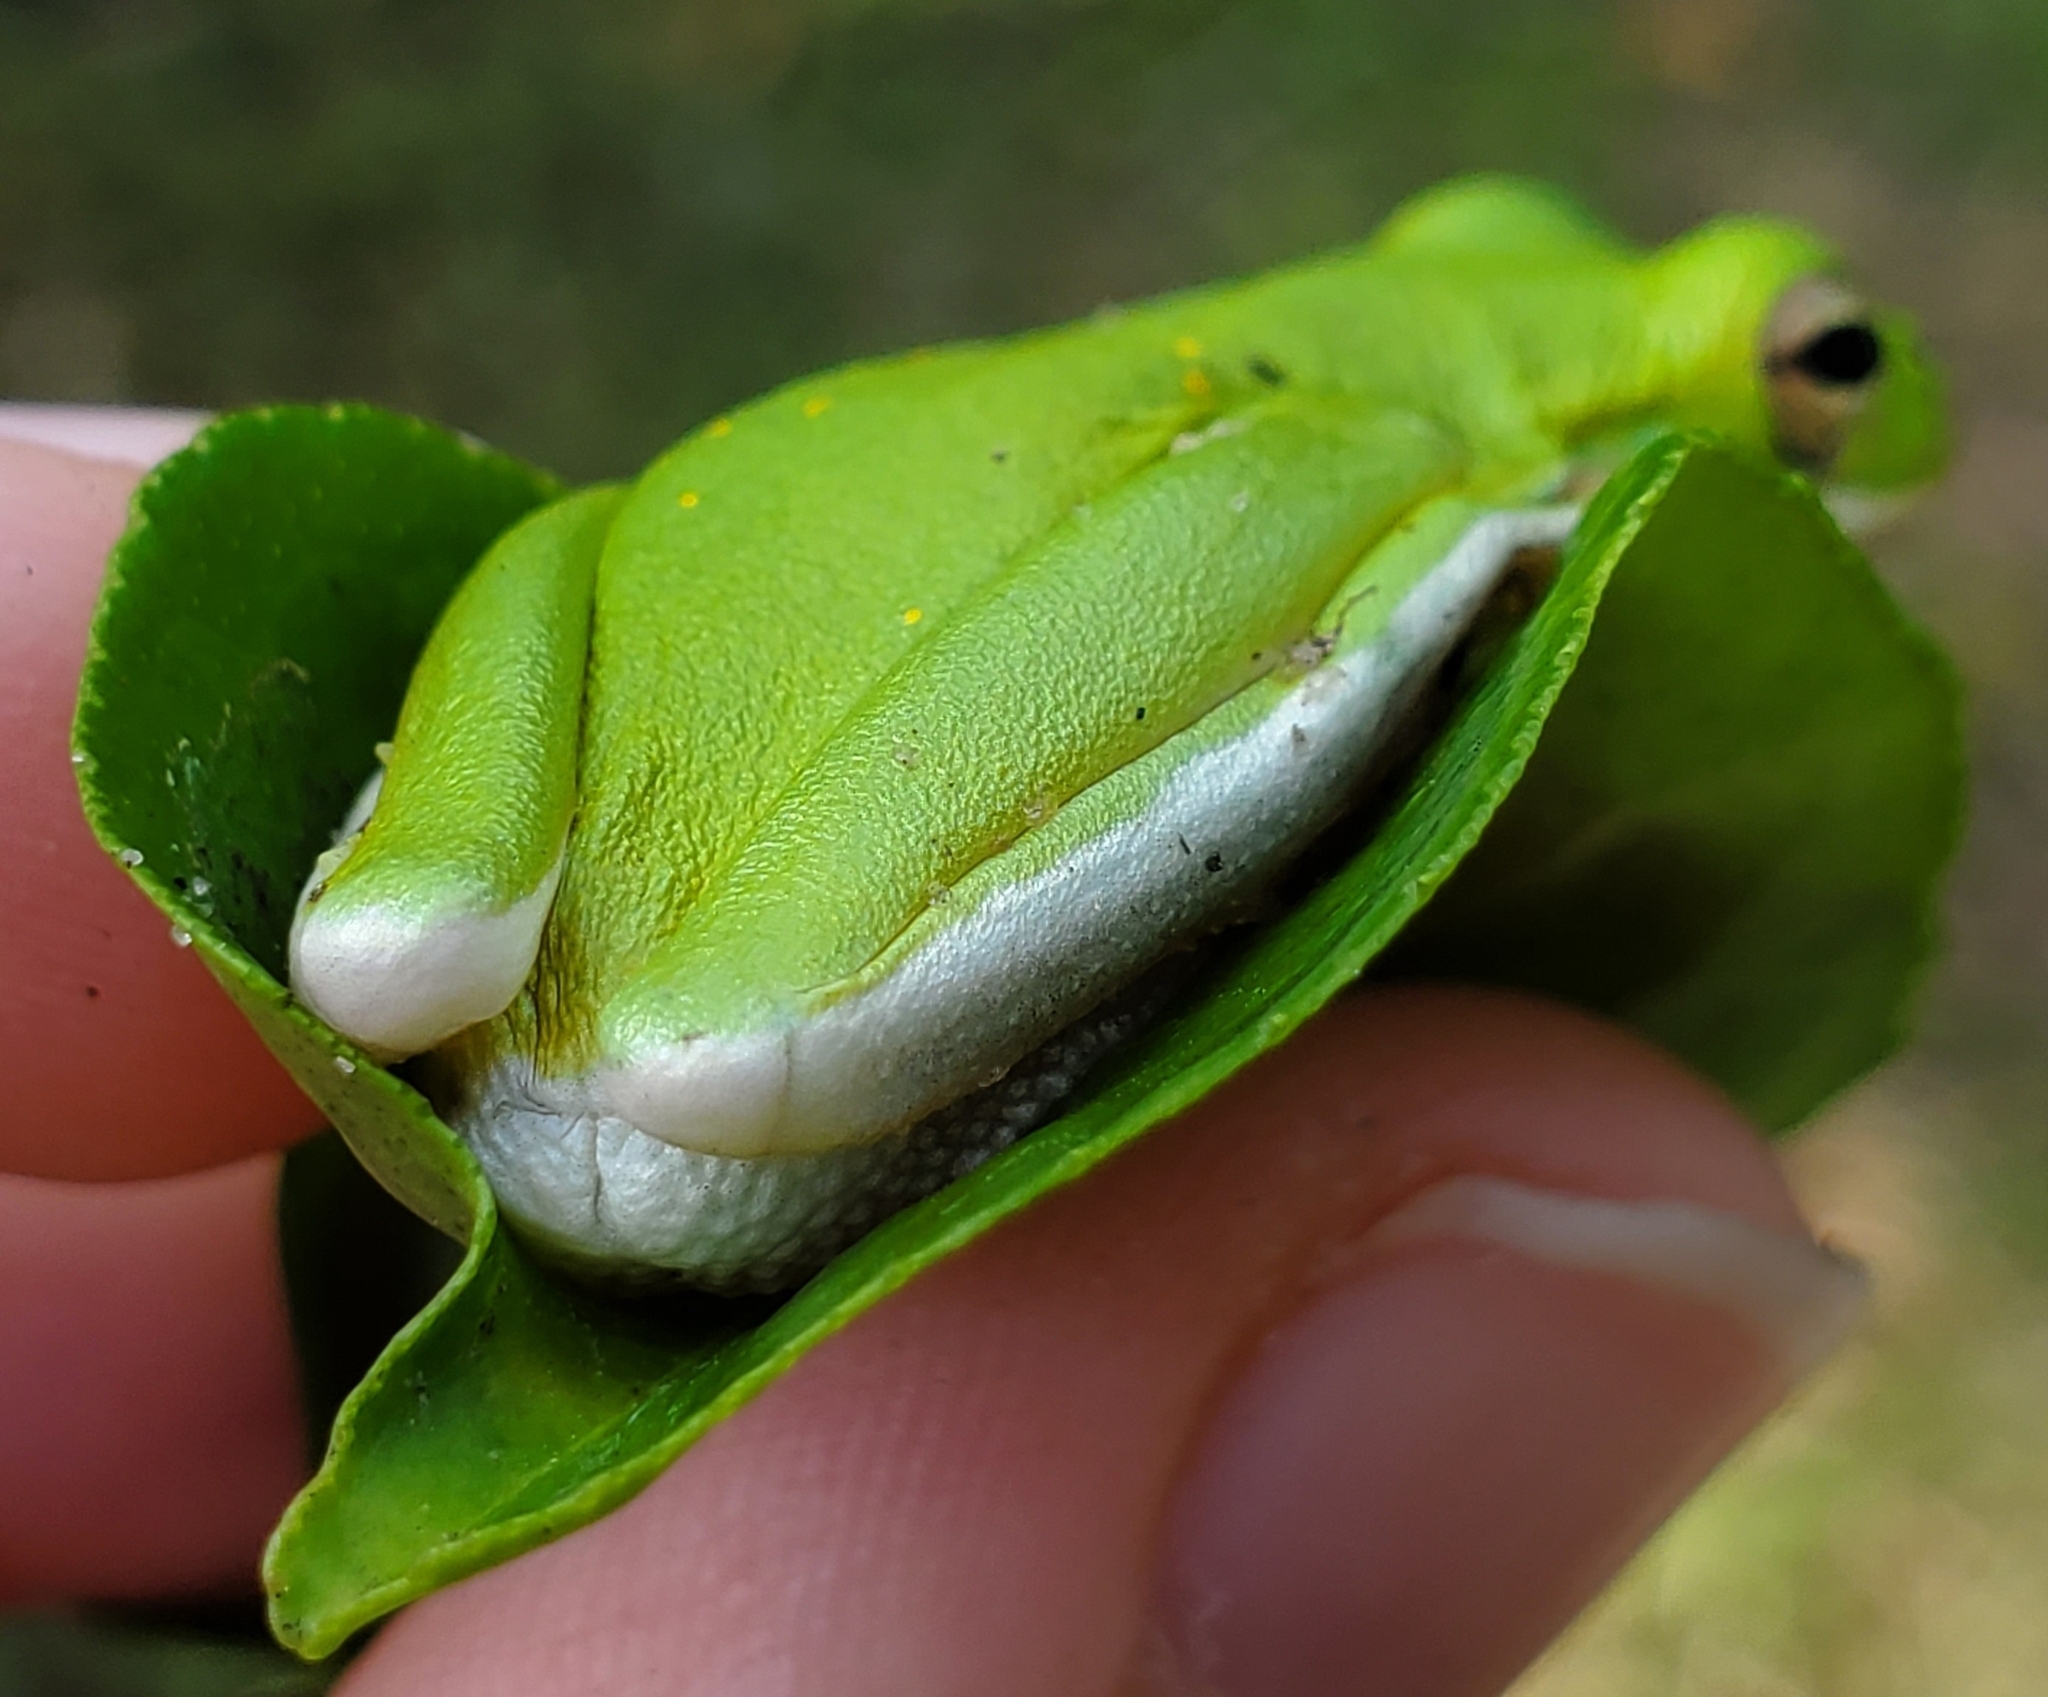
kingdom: Animalia
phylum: Chordata
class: Amphibia
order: Anura
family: Hylidae
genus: Dryophytes
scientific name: Dryophytes cinereus
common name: Green treefrog
